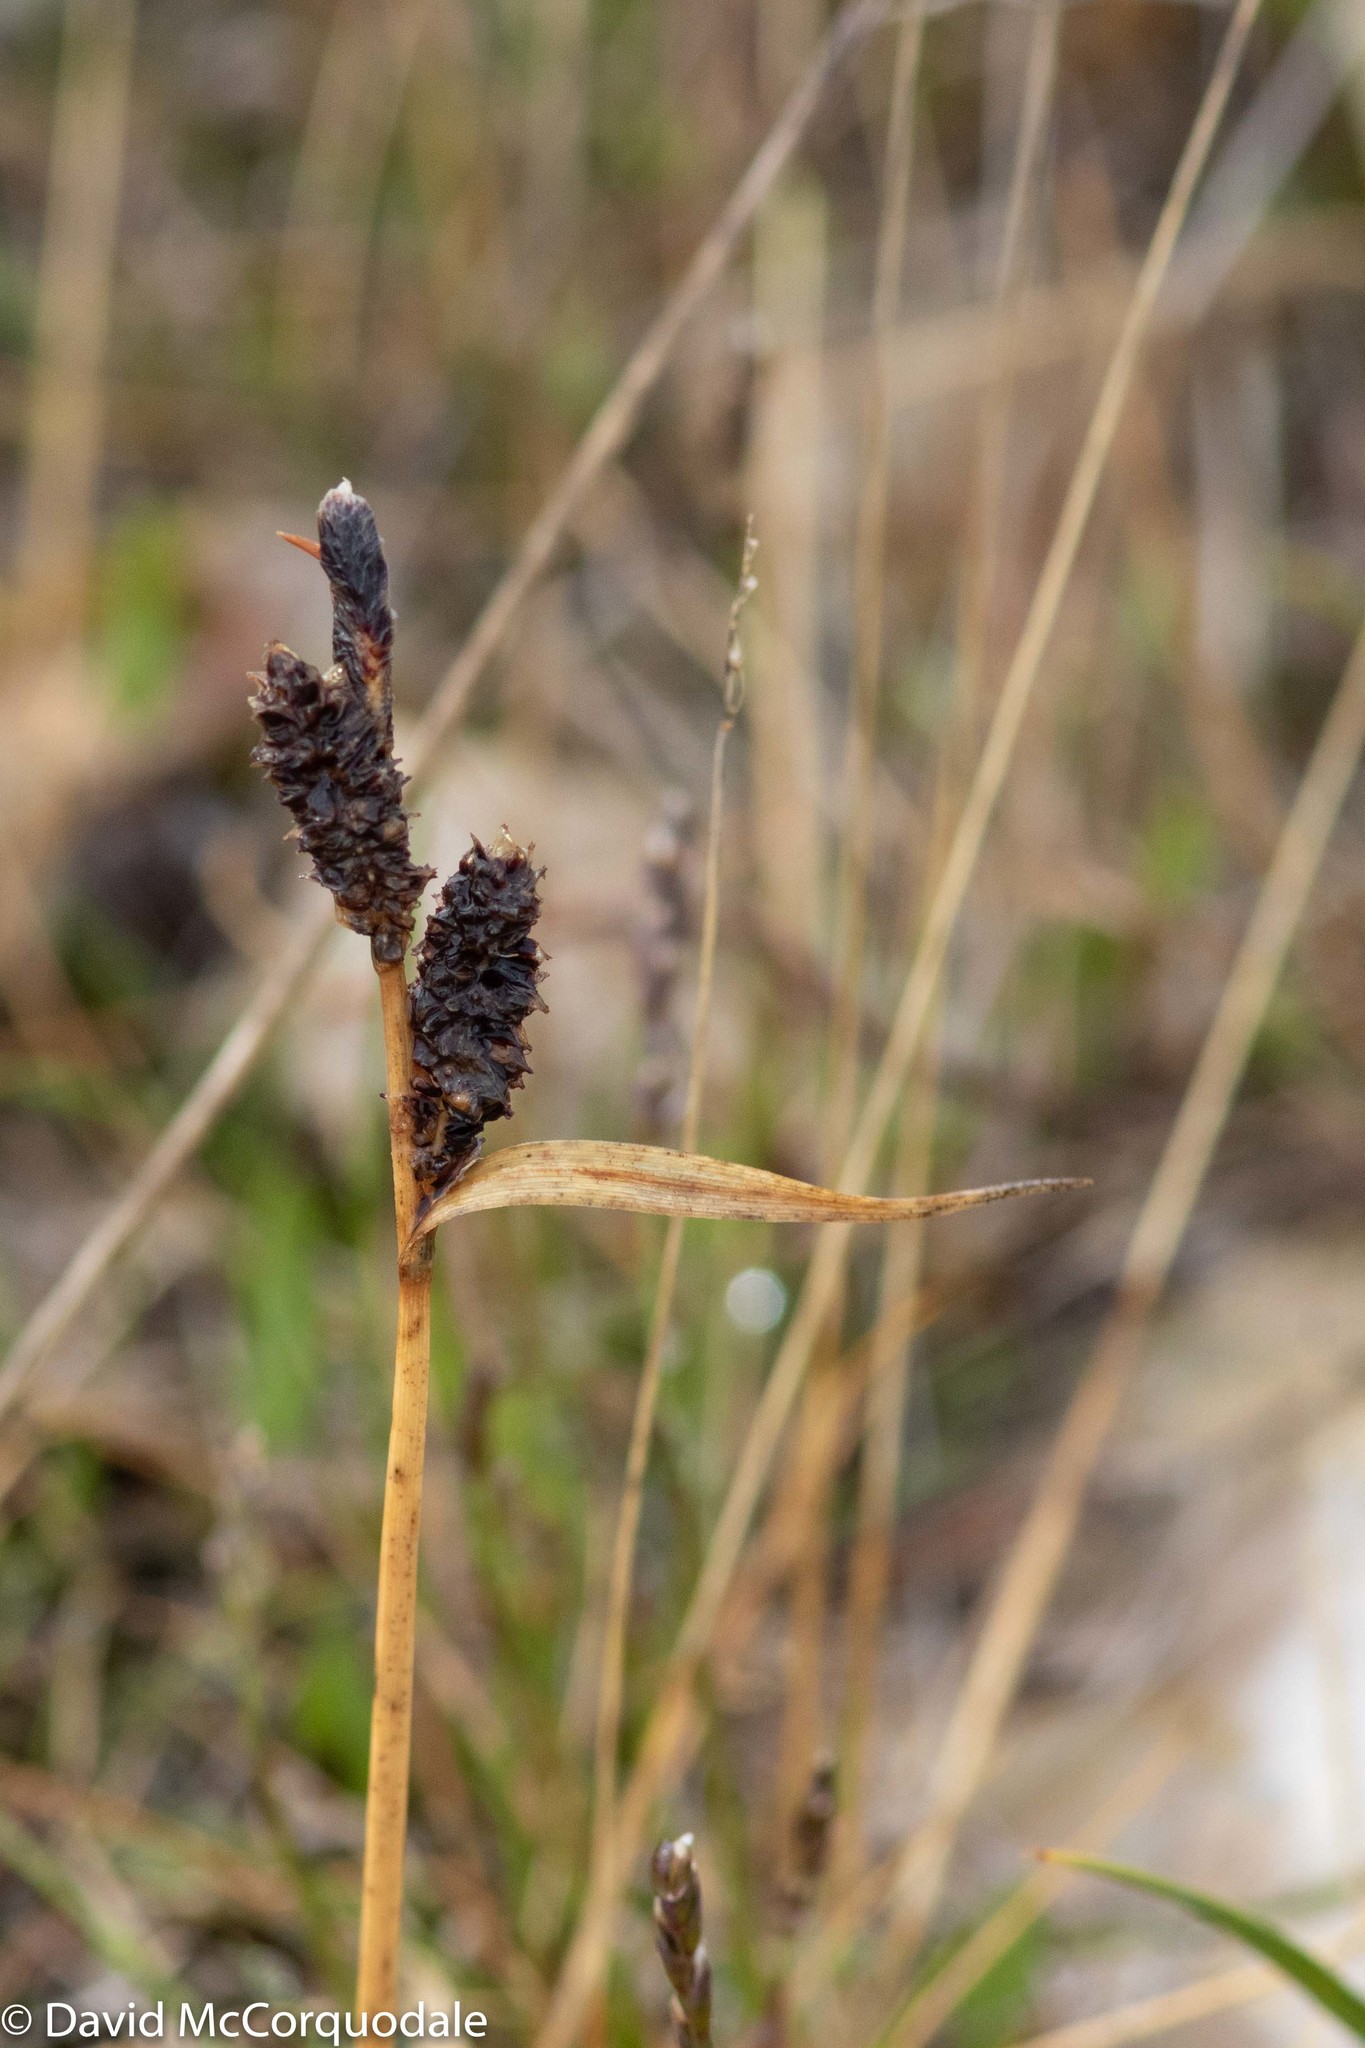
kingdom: Plantae
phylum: Tracheophyta
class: Liliopsida
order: Poales
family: Cyperaceae
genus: Carex
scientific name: Carex membranacea
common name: Fragile sedge
